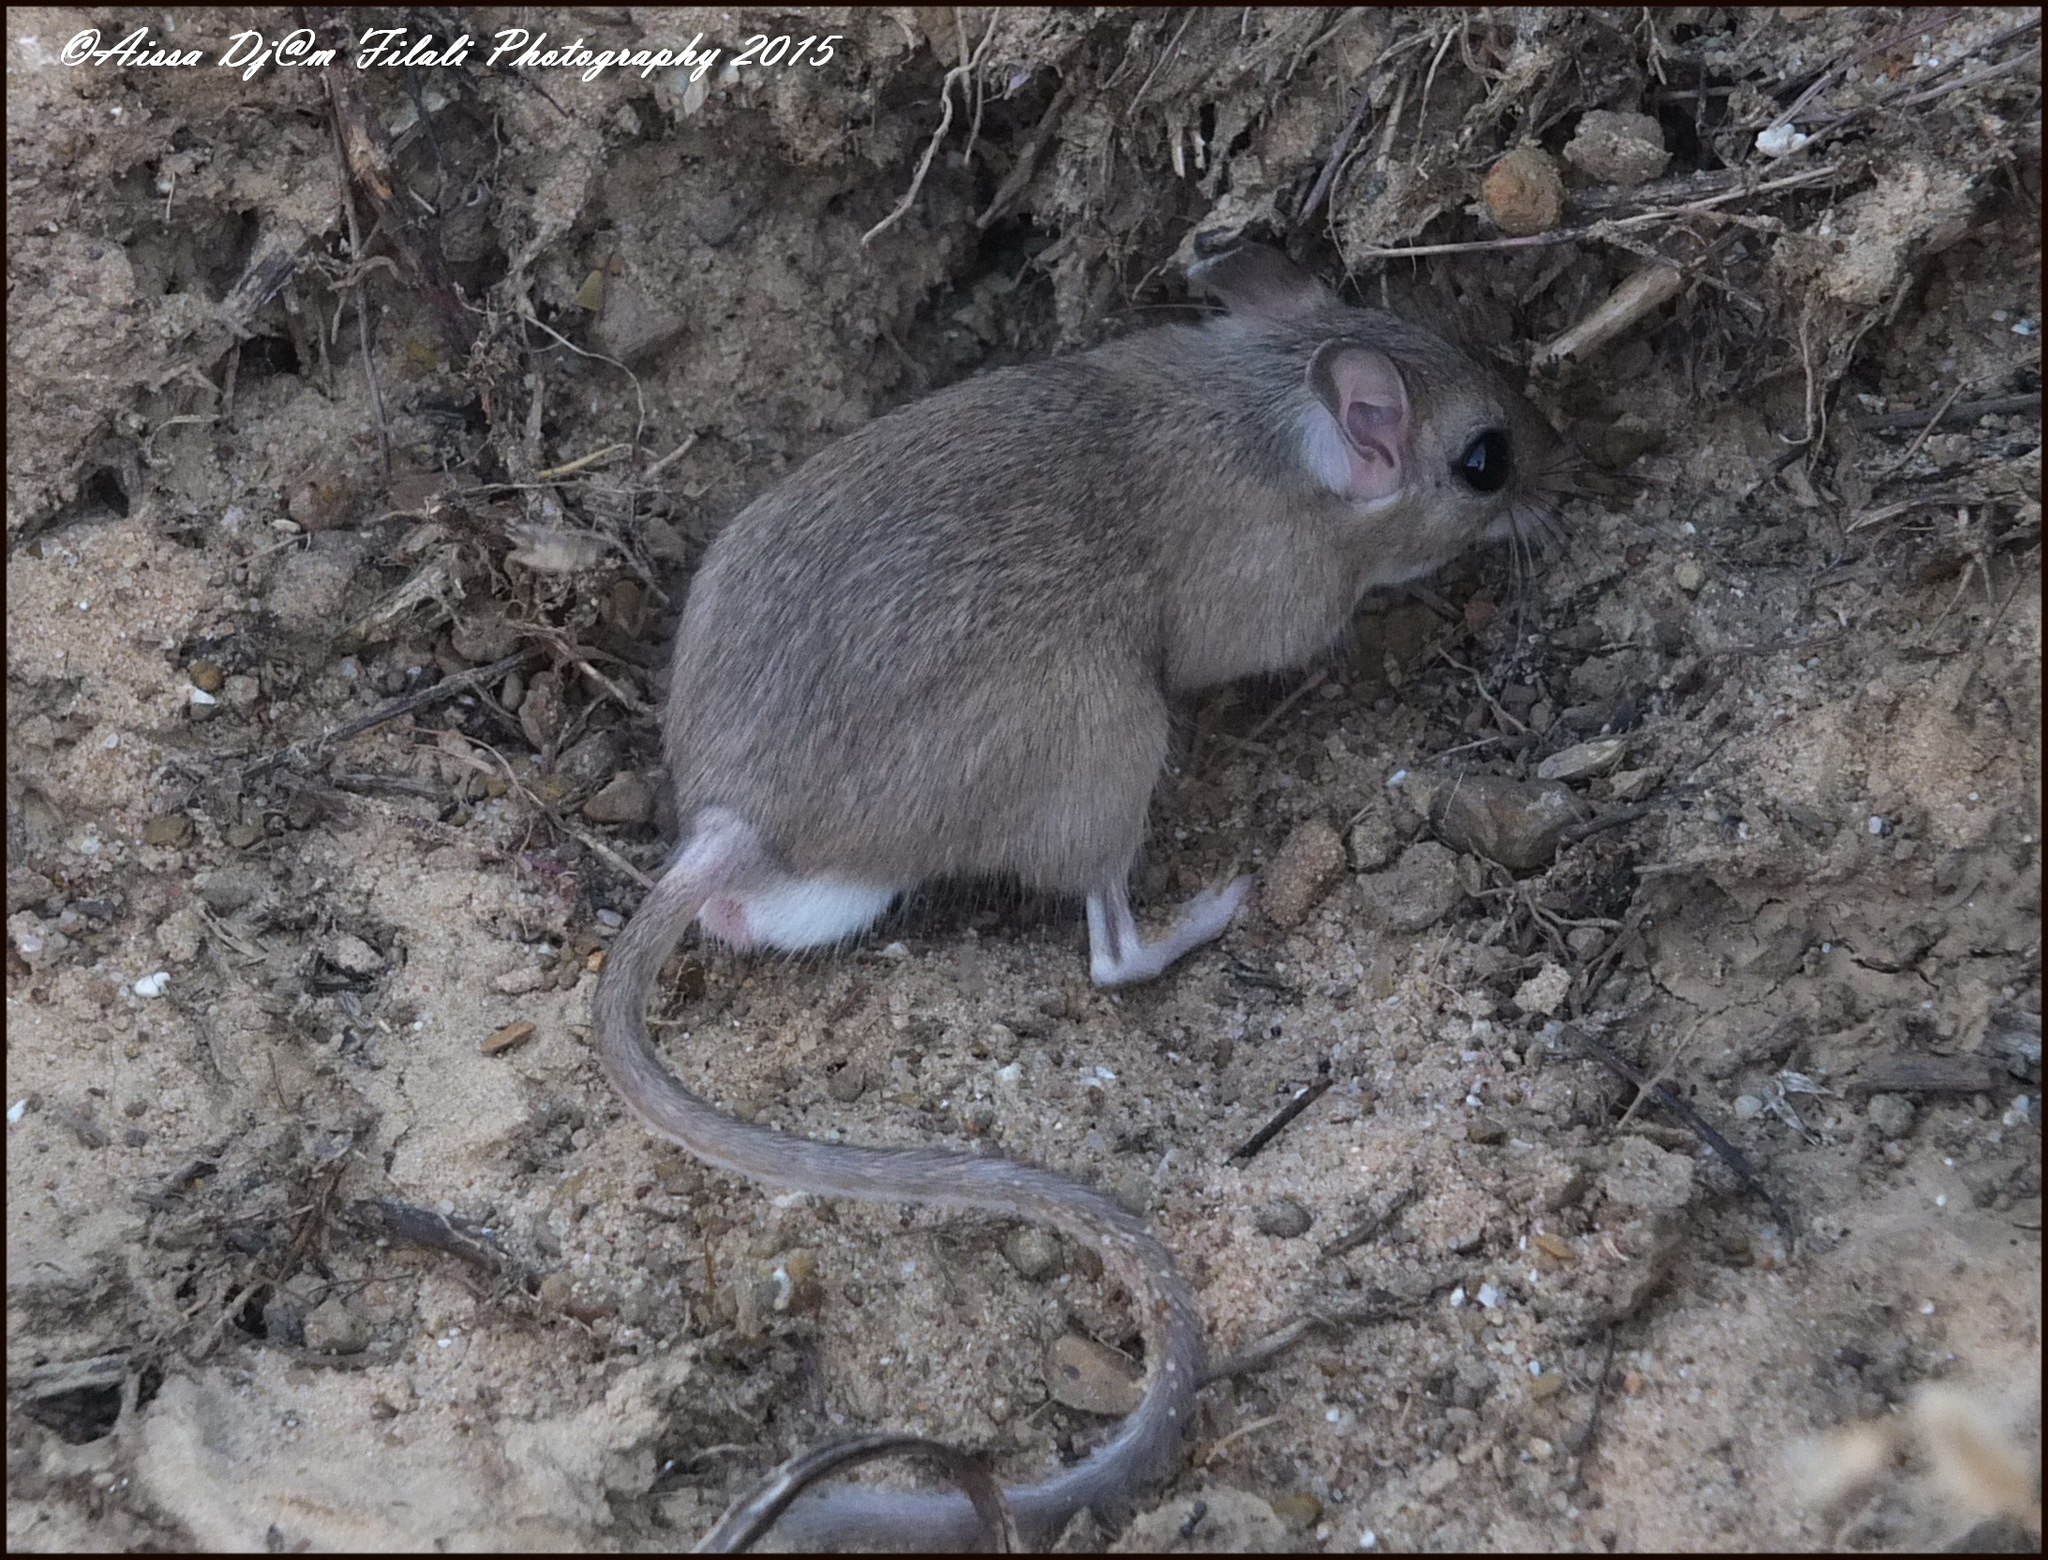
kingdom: Animalia
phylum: Chordata
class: Mammalia
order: Rodentia
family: Muridae
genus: Dipodillus
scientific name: Dipodillus campestris
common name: North african dipodil
